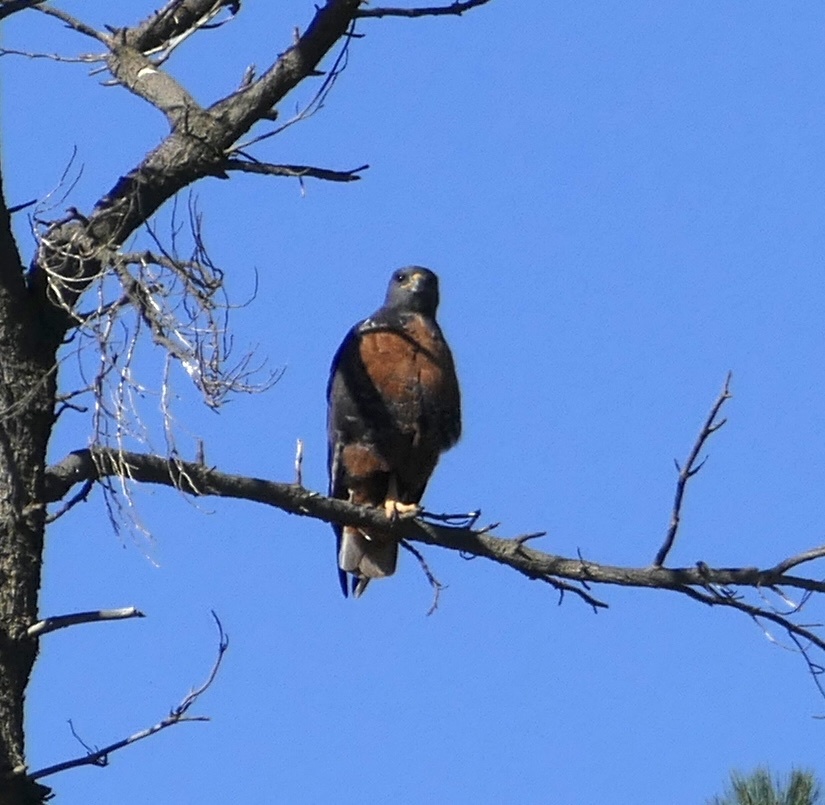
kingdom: Animalia
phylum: Chordata
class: Aves
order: Accipitriformes
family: Accipitridae
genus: Buteo
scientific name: Buteo rufofuscus
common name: Jackal buzzard
